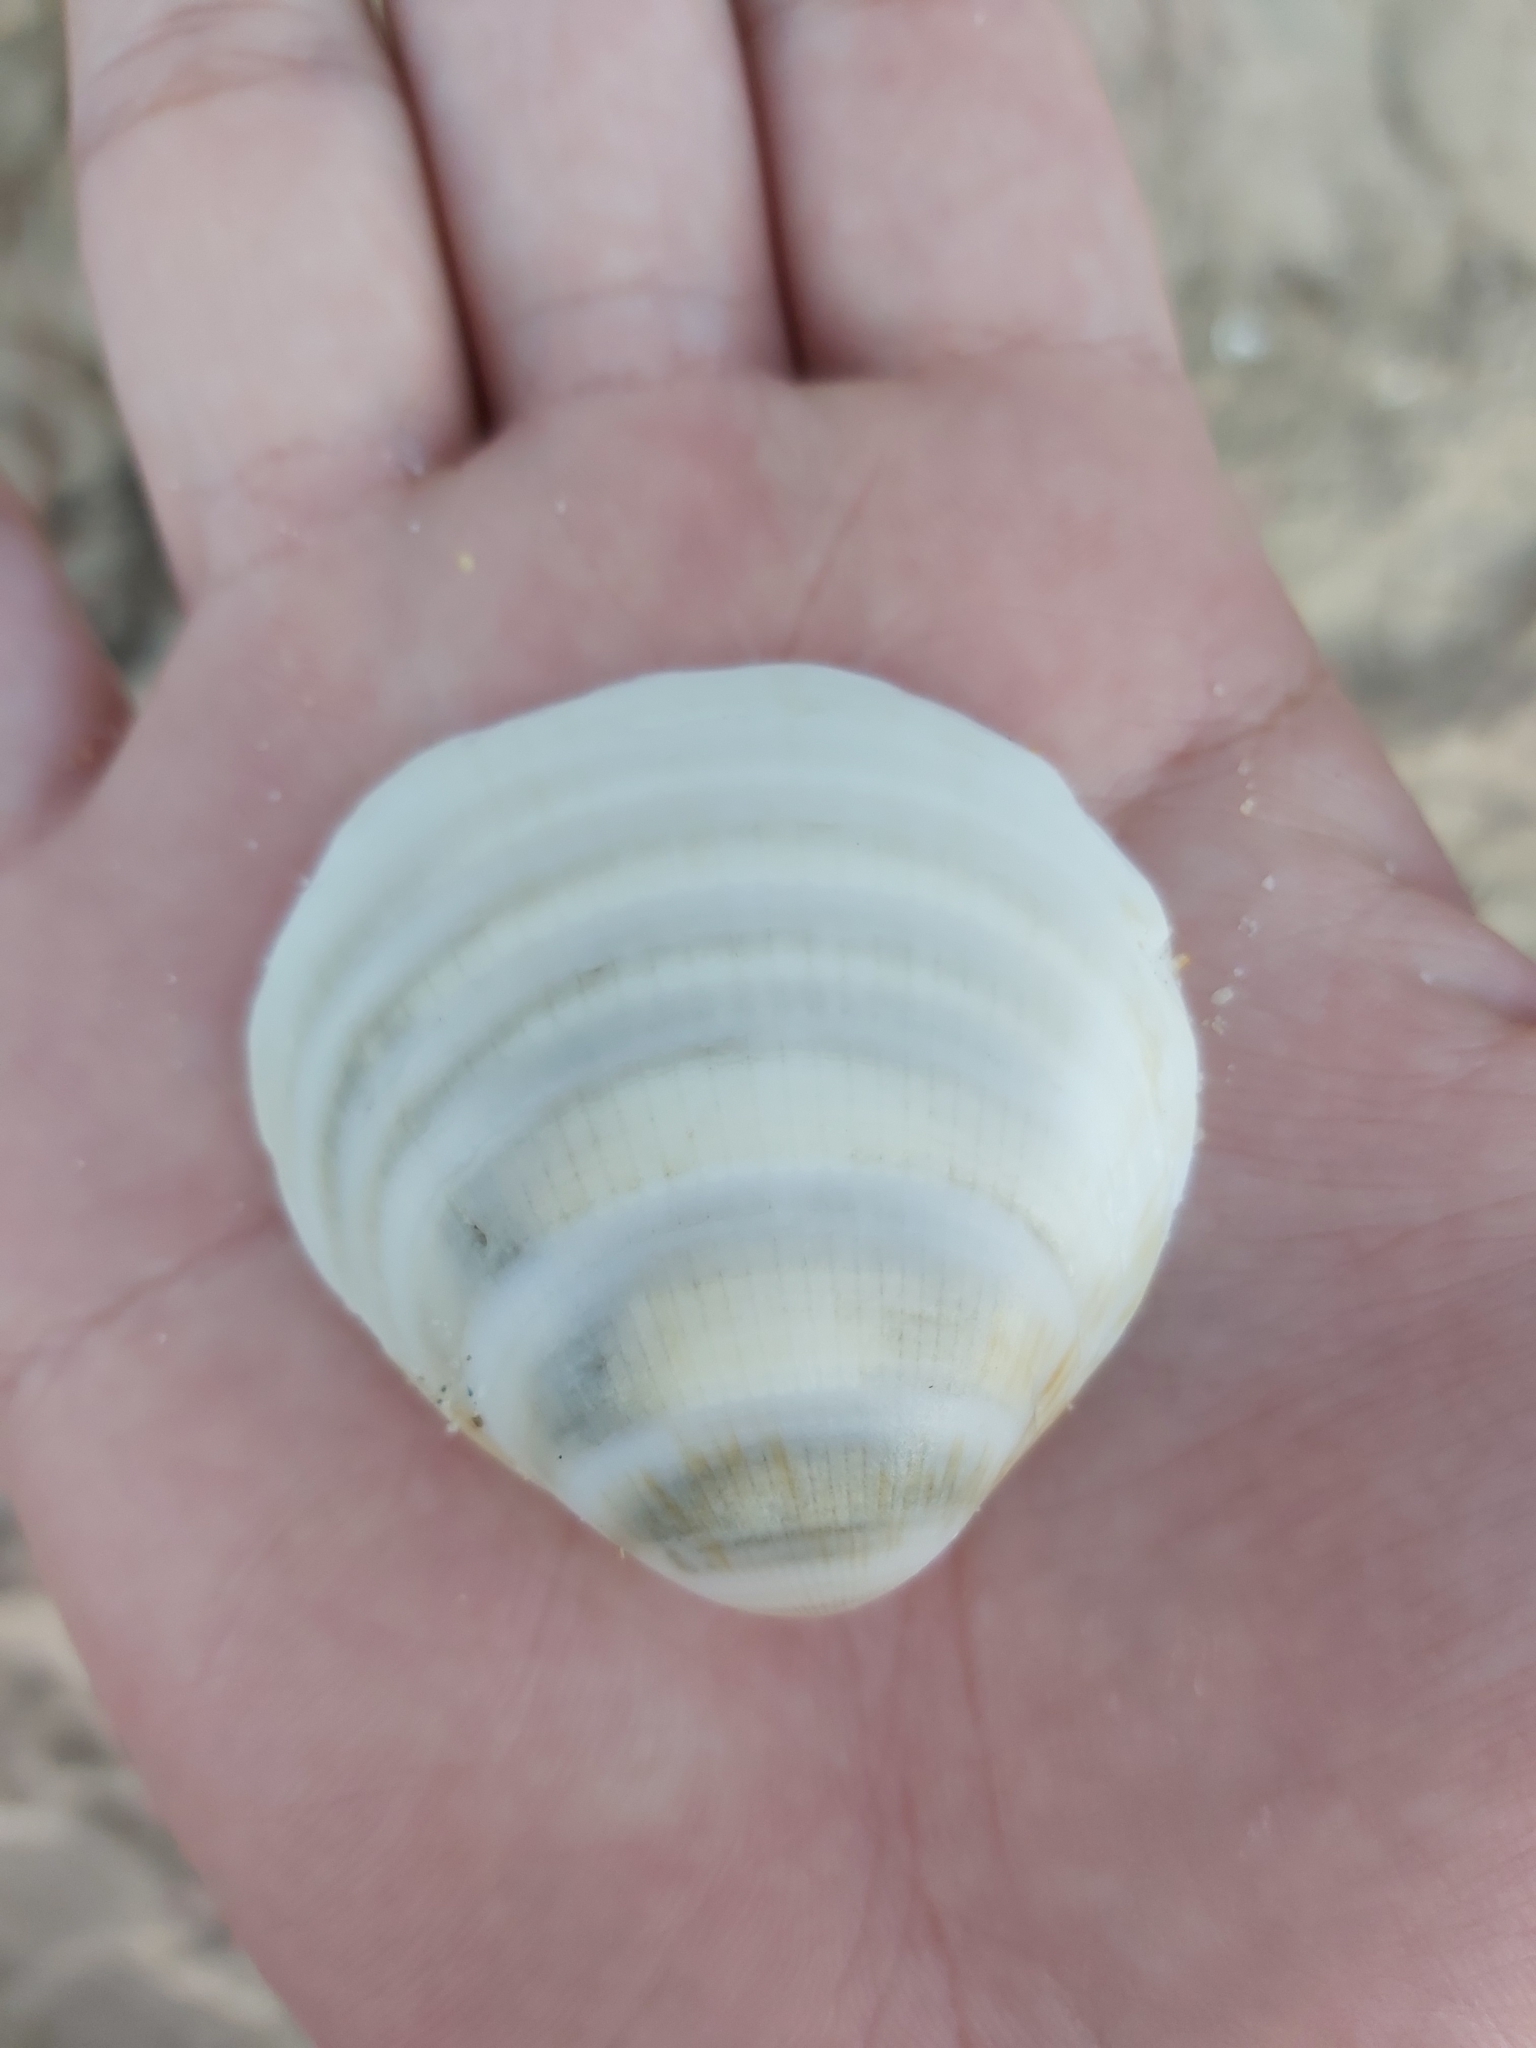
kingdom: Animalia
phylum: Mollusca
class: Bivalvia
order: Arcida
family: Glycymerididae
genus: Glycymeris
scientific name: Glycymeris grayana
